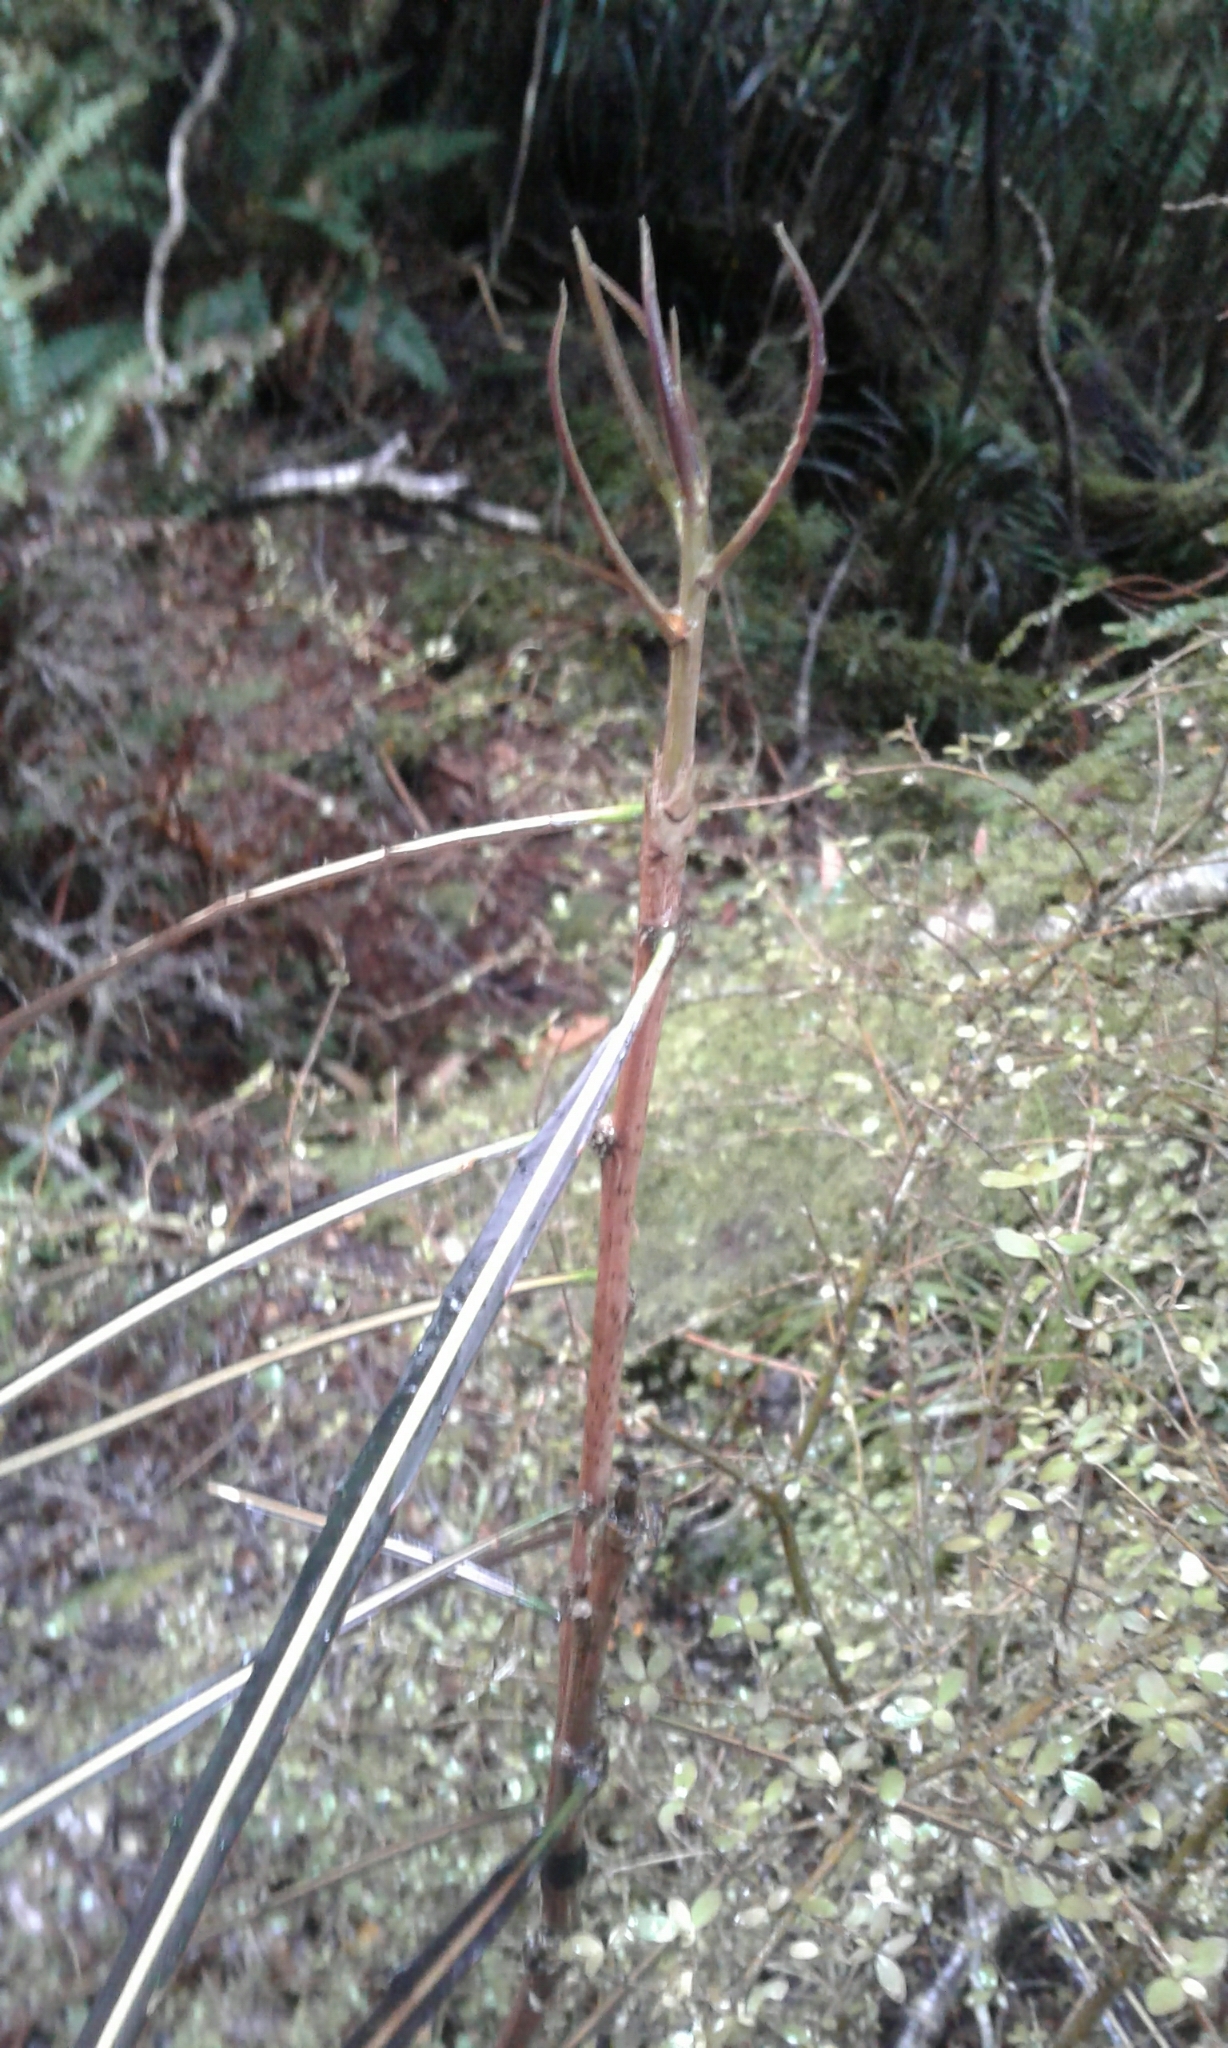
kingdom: Plantae
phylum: Tracheophyta
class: Magnoliopsida
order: Apiales
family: Araliaceae
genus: Pseudopanax
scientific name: Pseudopanax crassifolius
